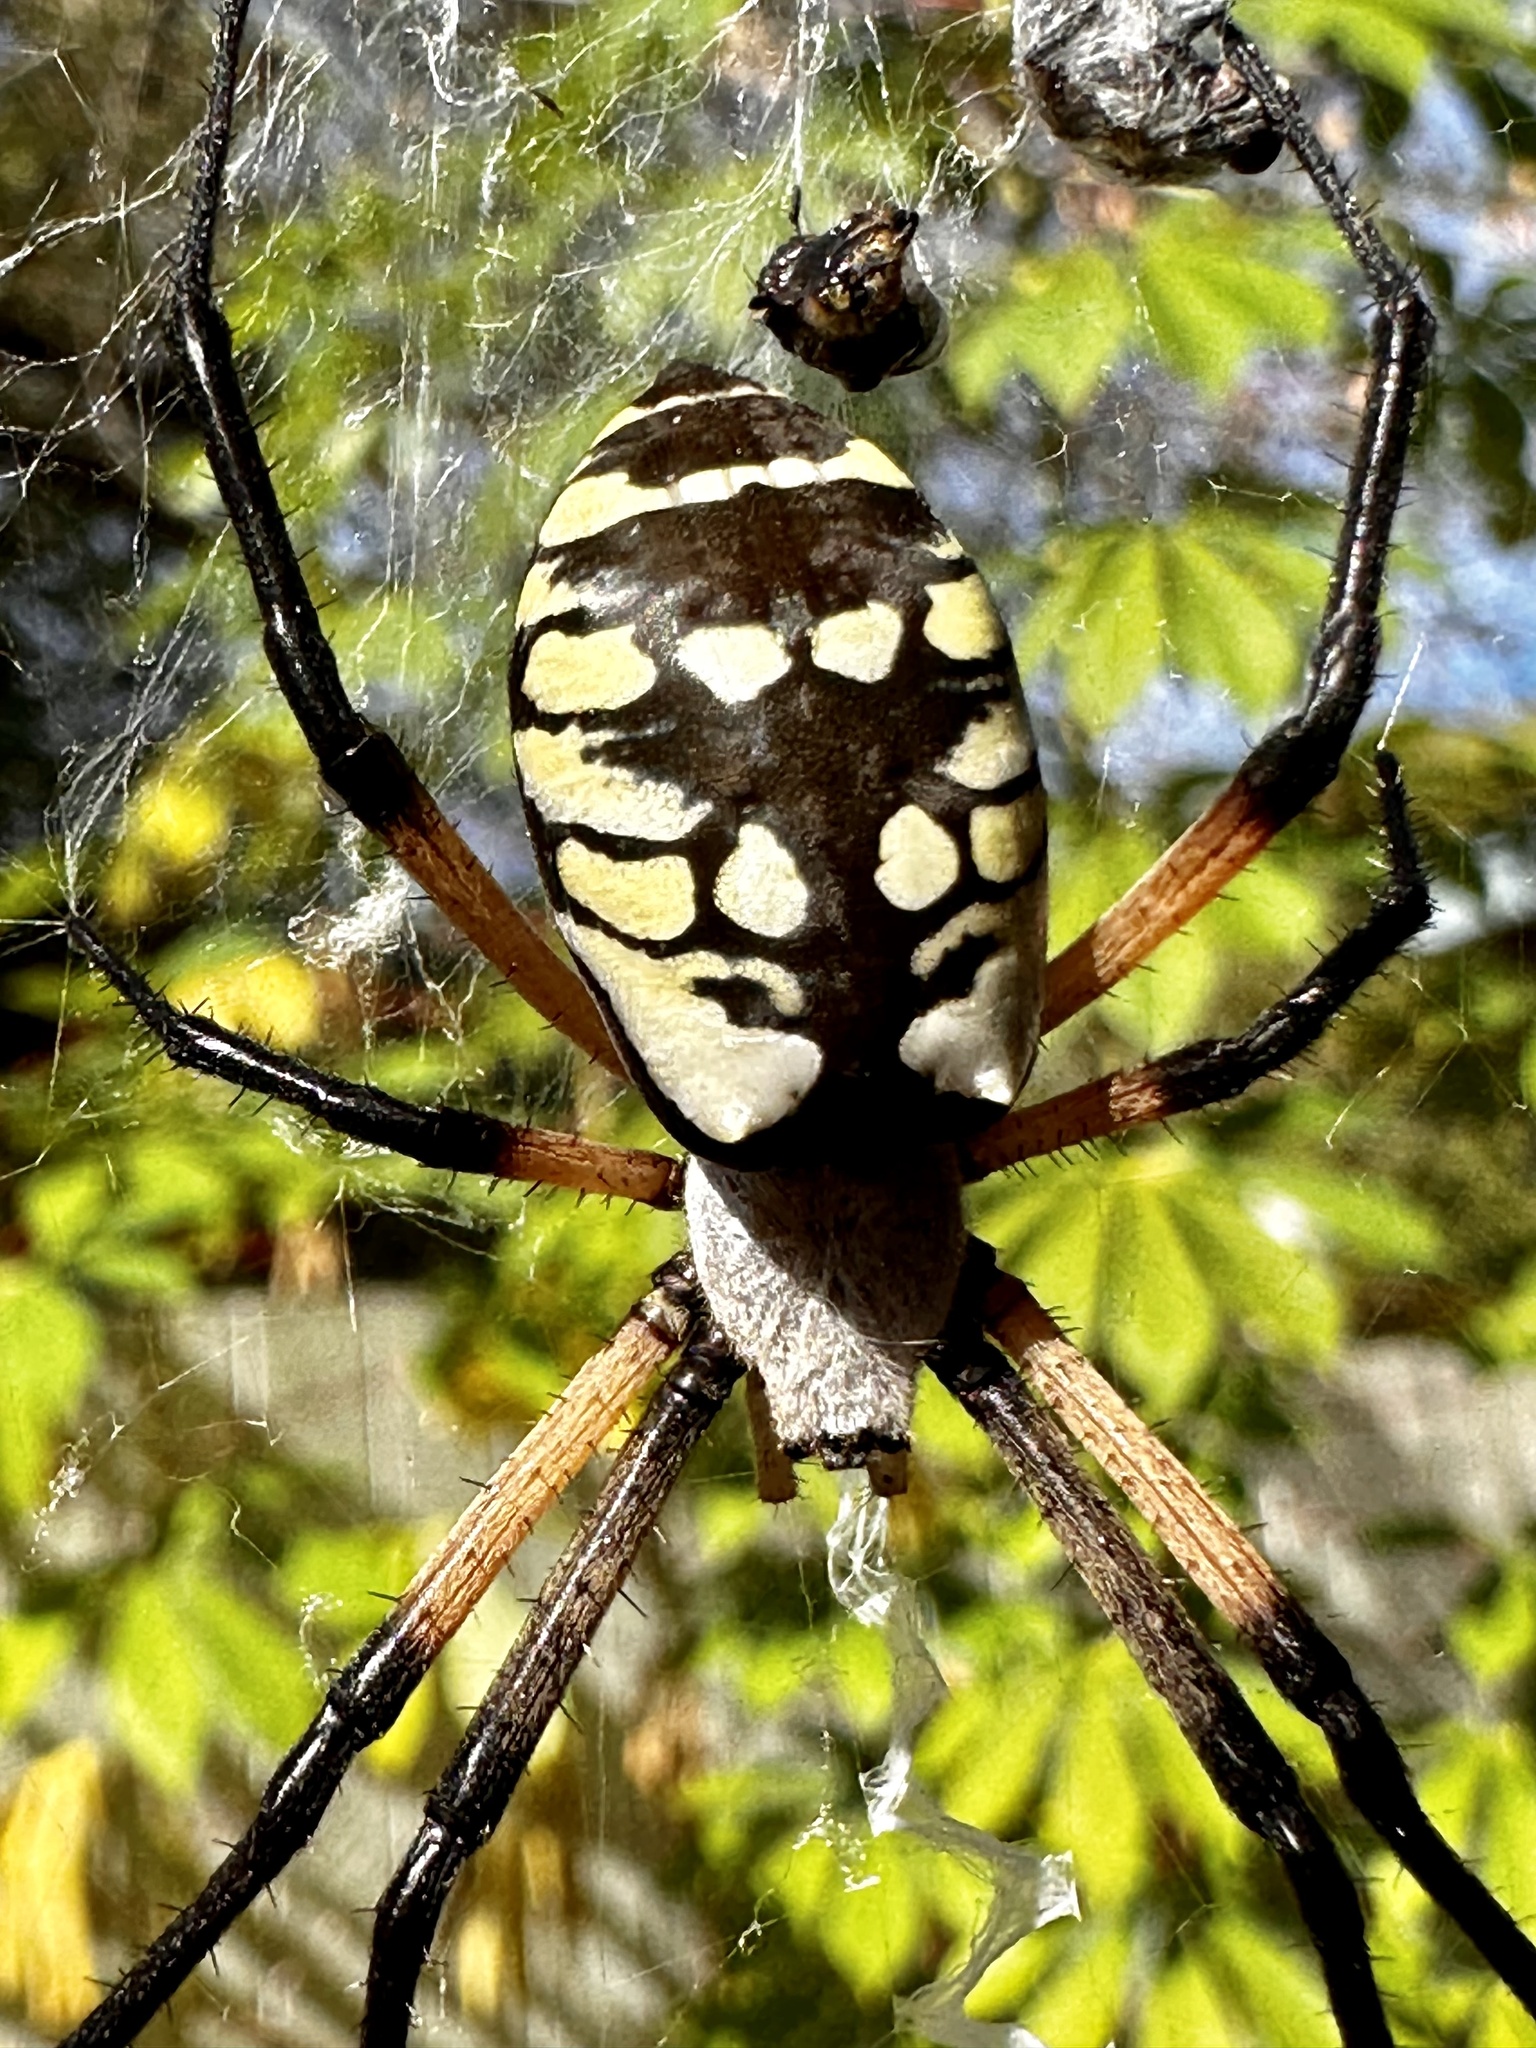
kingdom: Animalia
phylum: Arthropoda
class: Arachnida
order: Araneae
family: Araneidae
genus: Argiope
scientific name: Argiope aurantia
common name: Orb weavers
